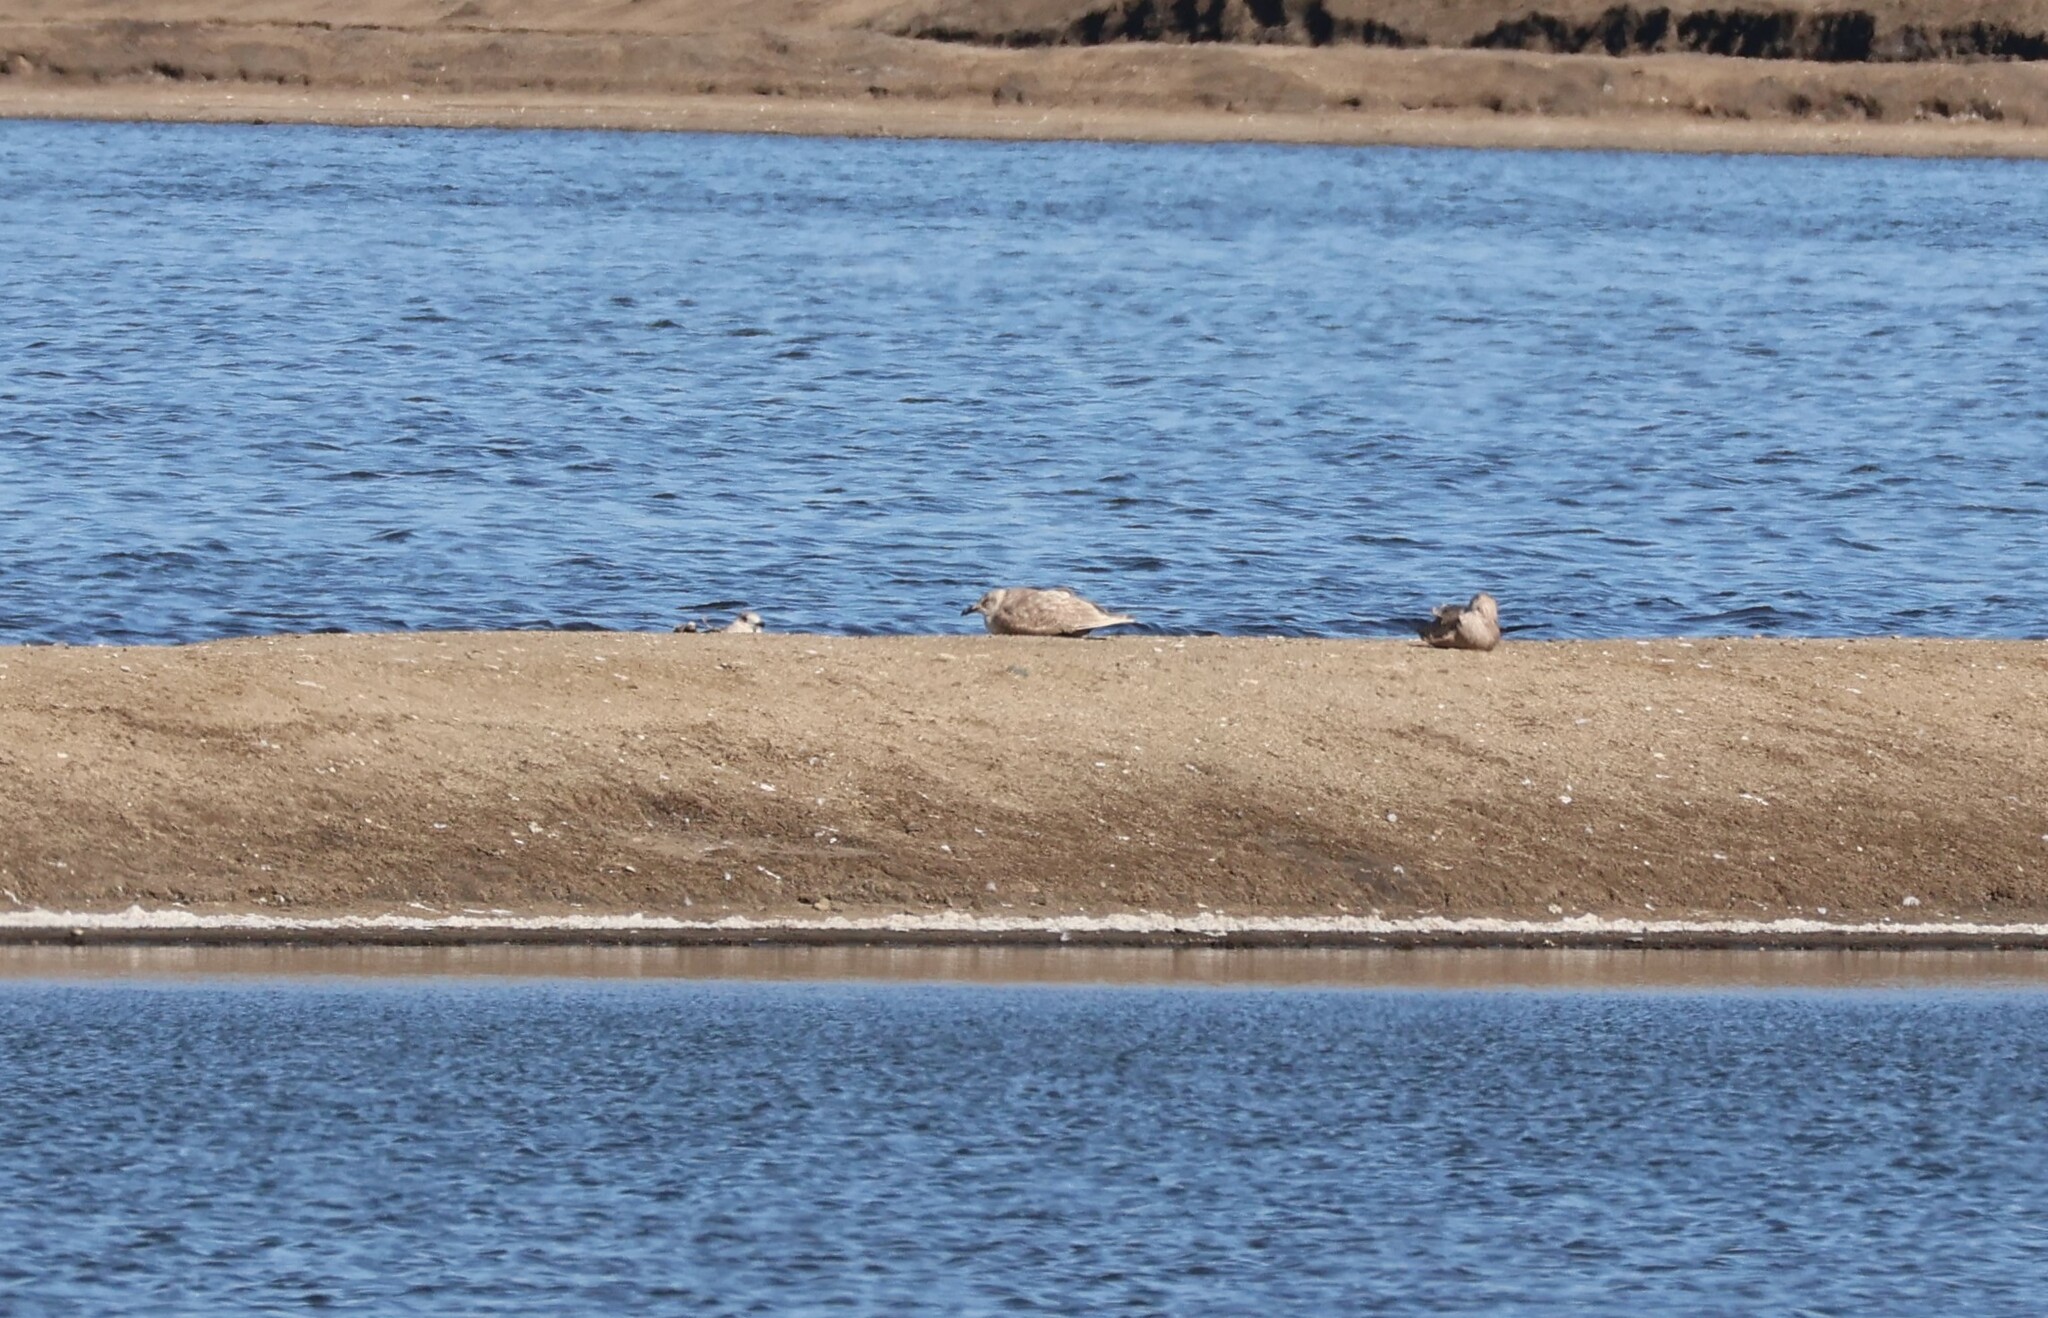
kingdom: Animalia
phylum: Chordata
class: Aves
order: Charadriiformes
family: Laridae
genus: Larus
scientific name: Larus glaucescens
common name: Glaucous-winged gull
